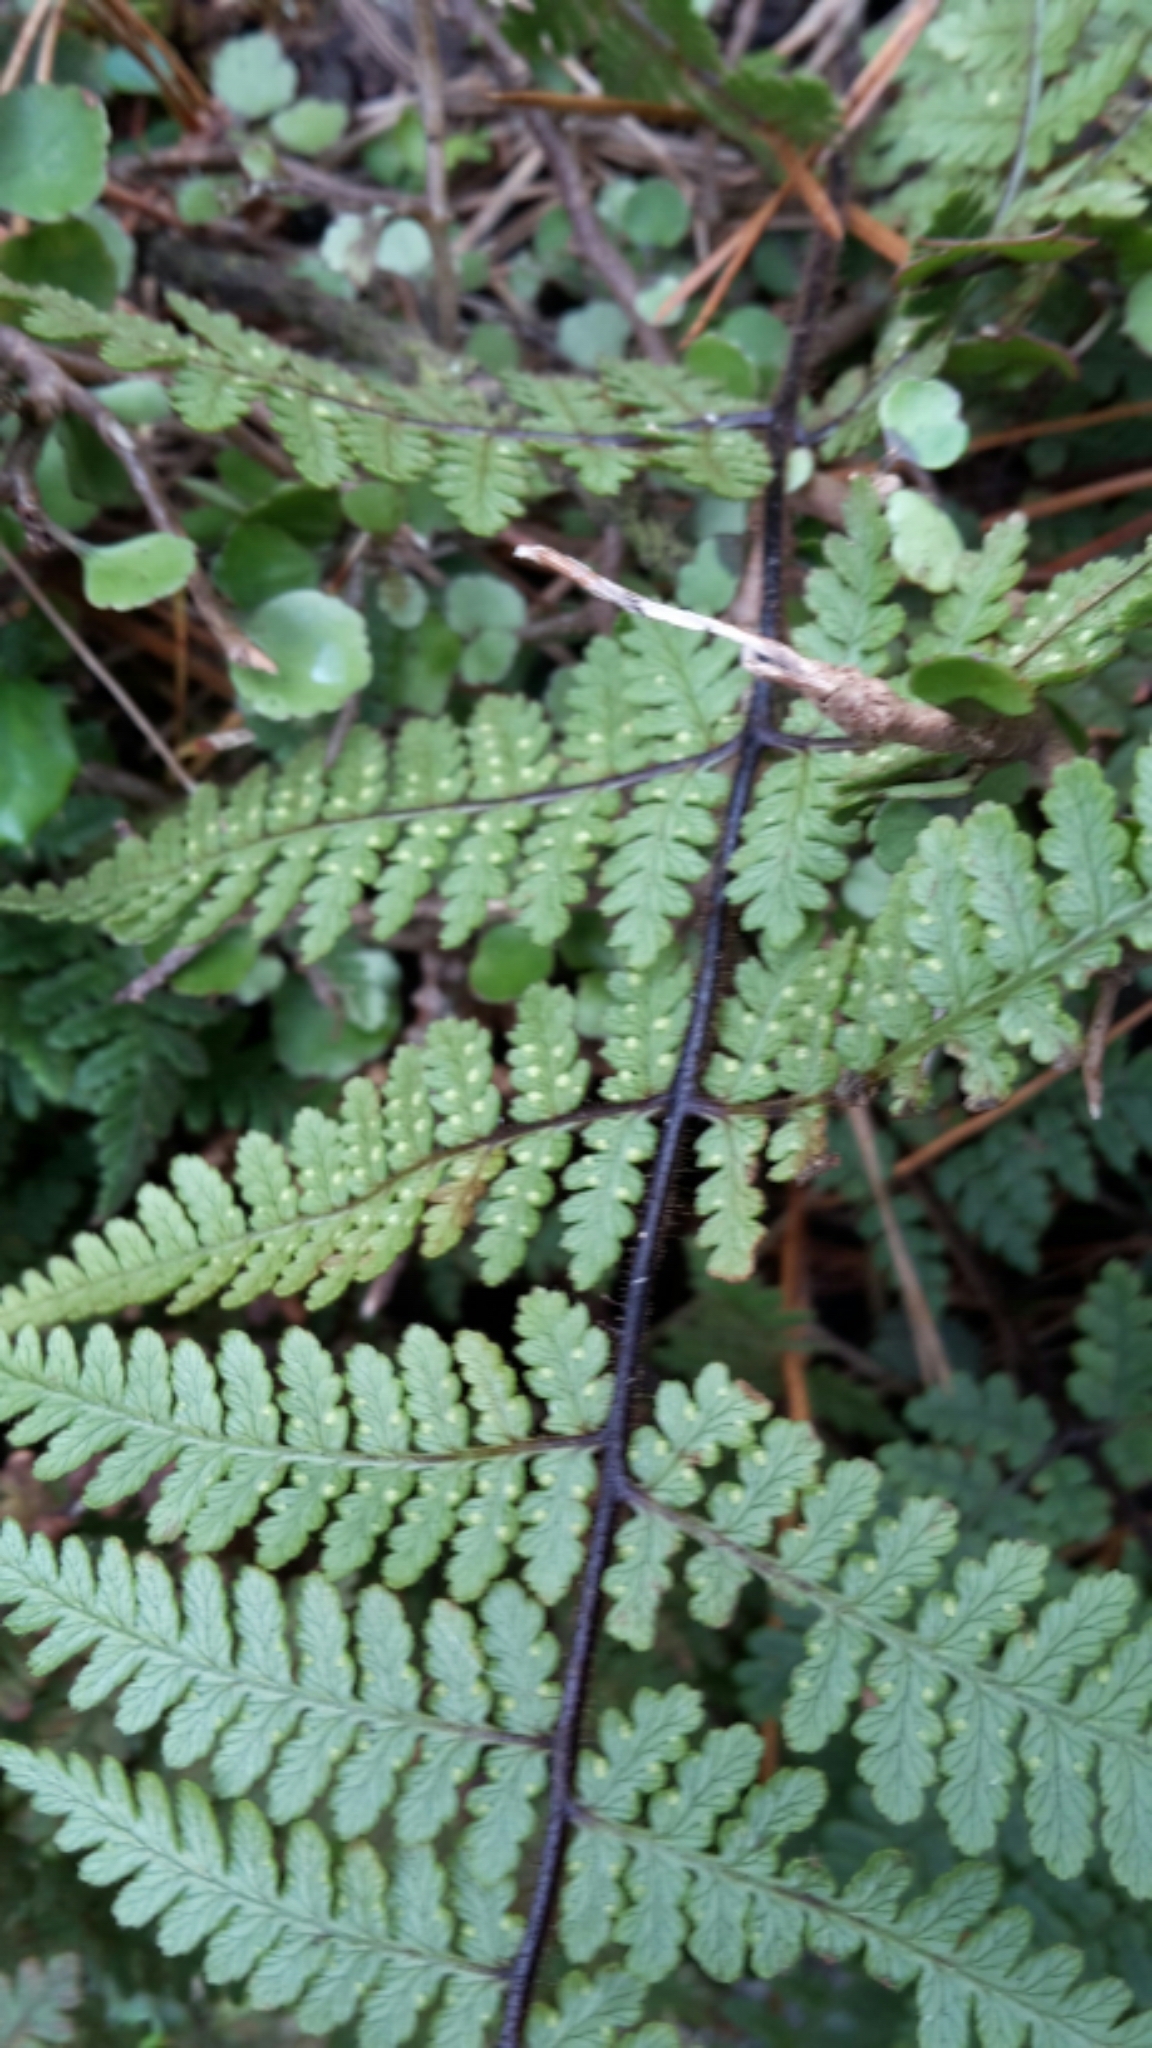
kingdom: Plantae
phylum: Tracheophyta
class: Polypodiopsida
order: Polypodiales
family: Dennstaedtiaceae
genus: Hypolepis
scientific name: Hypolepis rugosula
